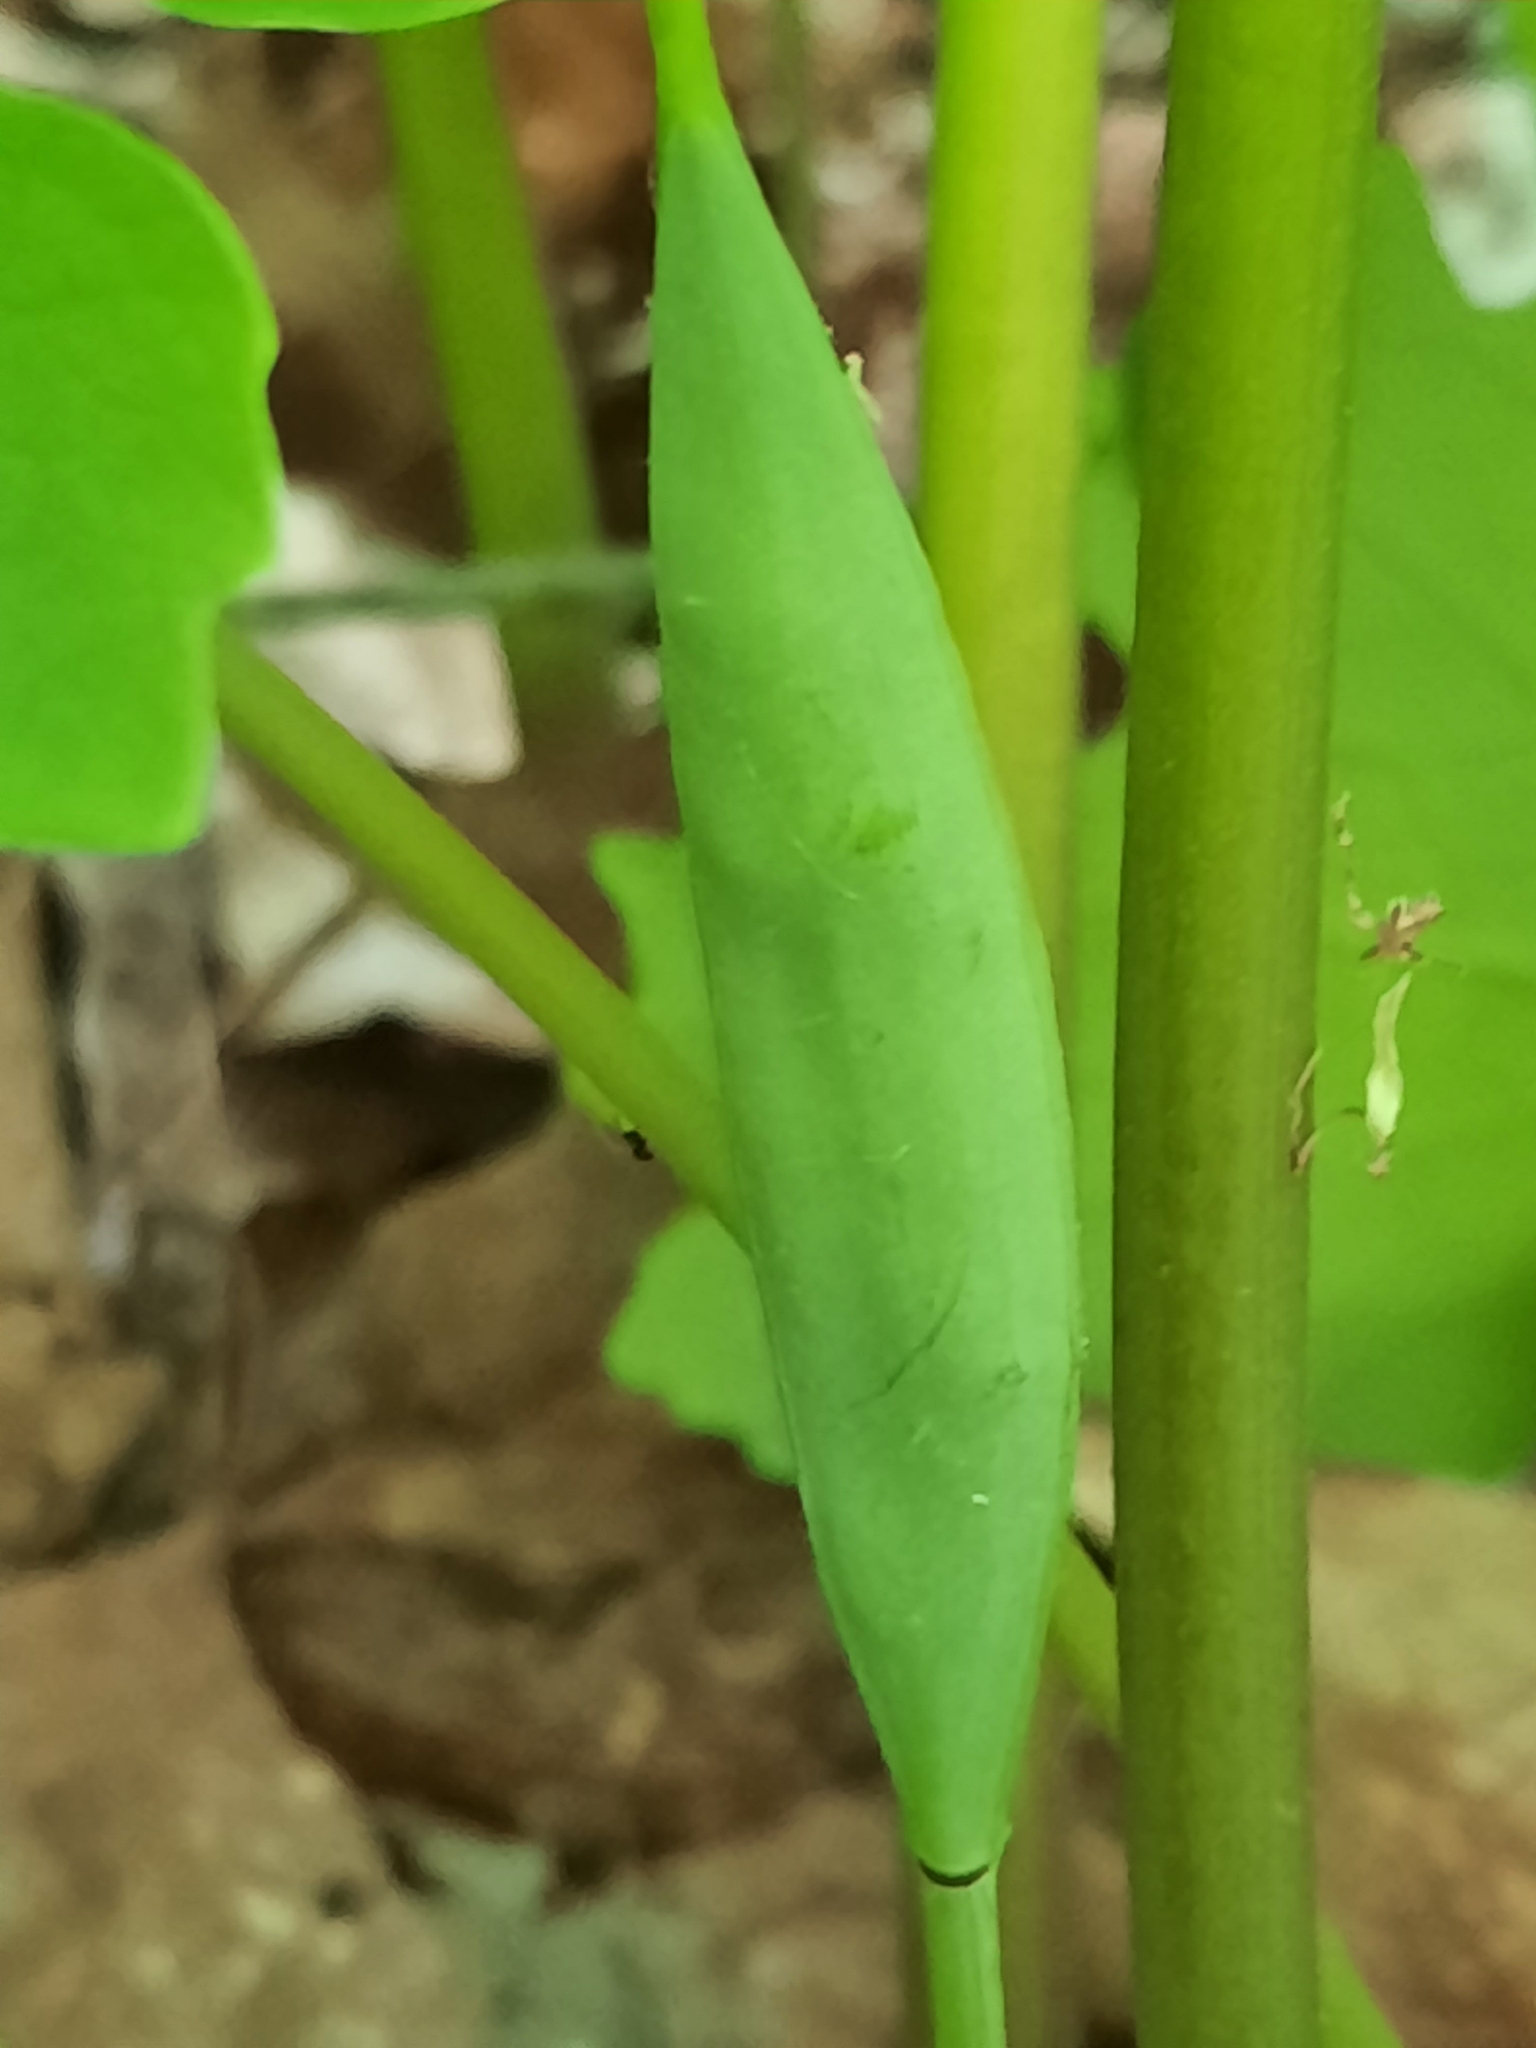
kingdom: Plantae
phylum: Tracheophyta
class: Magnoliopsida
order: Ranunculales
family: Papaveraceae
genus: Sanguinaria
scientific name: Sanguinaria canadensis
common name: Bloodroot
